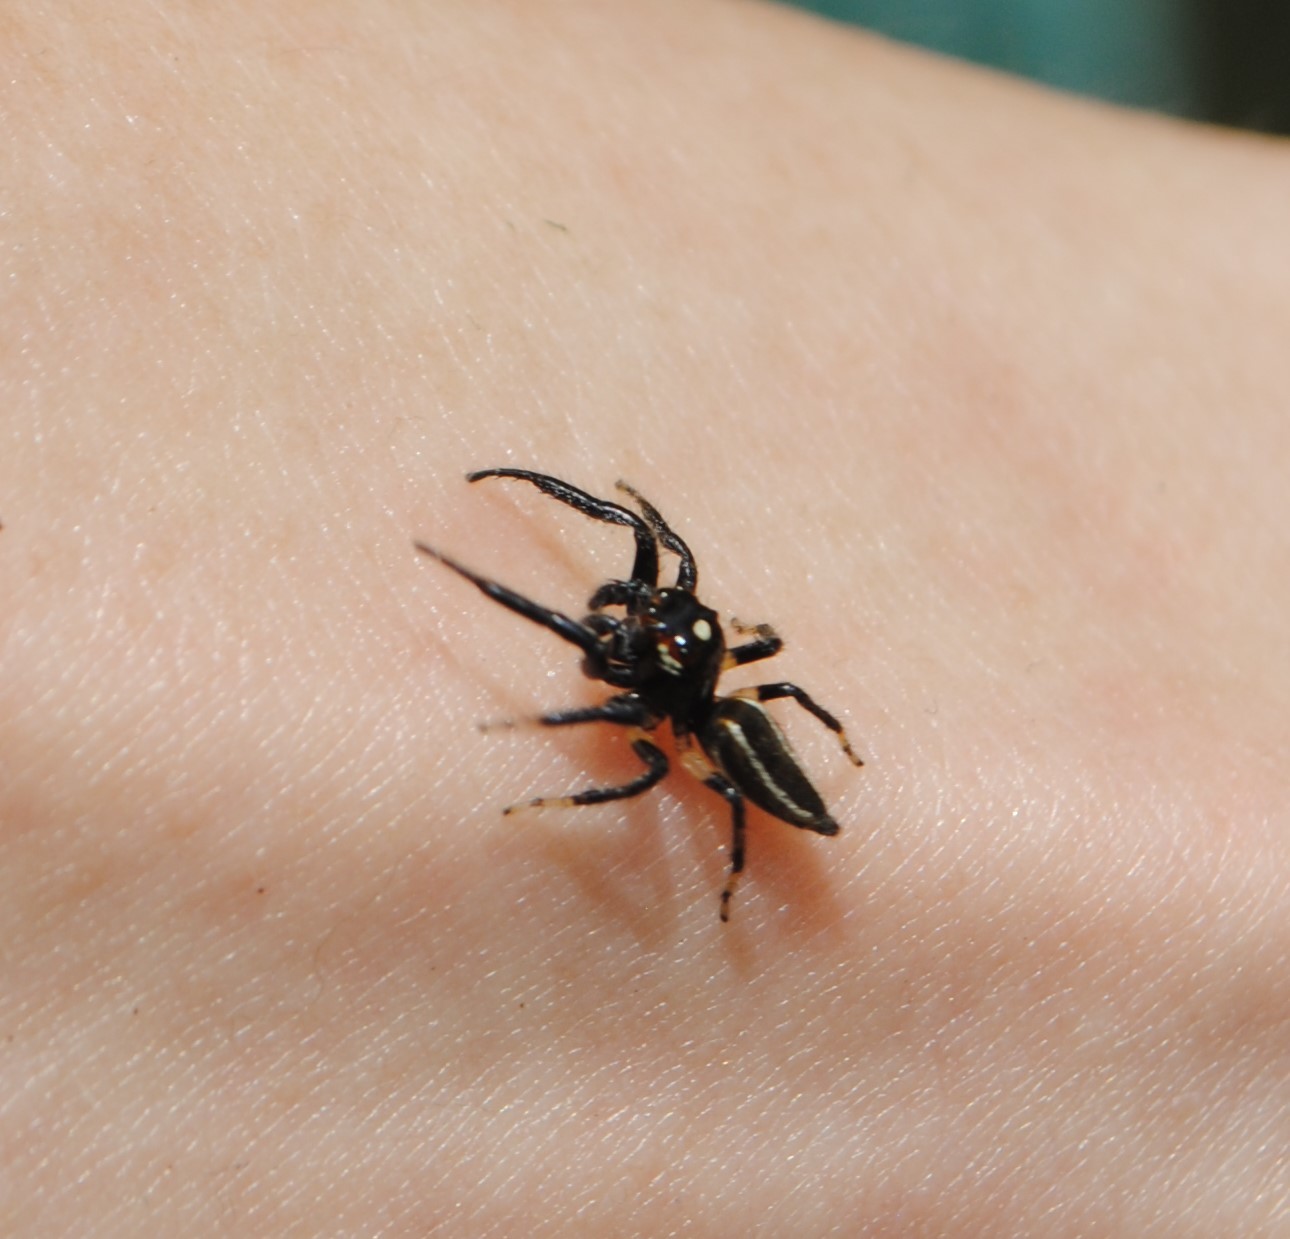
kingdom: Animalia
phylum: Arthropoda
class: Arachnida
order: Araneae
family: Salticidae
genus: Colonus
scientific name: Colonus sylvanus
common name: Jumping spiders
